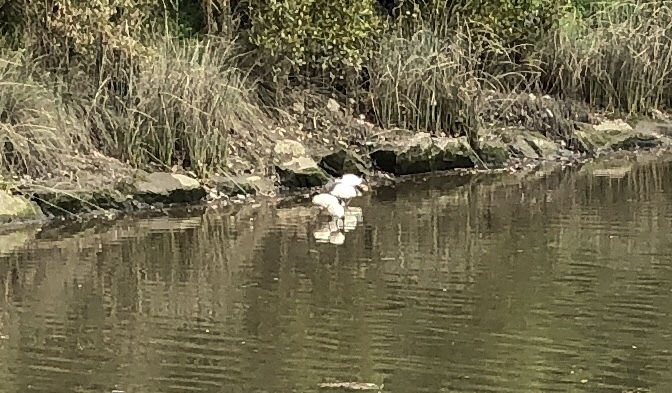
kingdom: Animalia
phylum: Chordata
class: Aves
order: Pelecaniformes
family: Threskiornithidae
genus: Threskiornis
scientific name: Threskiornis molucca
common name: Australian white ibis
